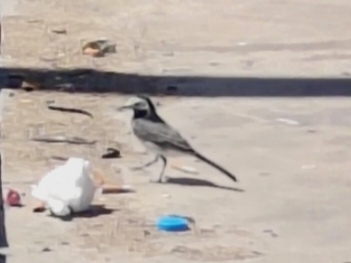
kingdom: Animalia
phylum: Chordata
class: Aves
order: Passeriformes
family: Motacillidae
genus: Motacilla
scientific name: Motacilla alba
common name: White wagtail
